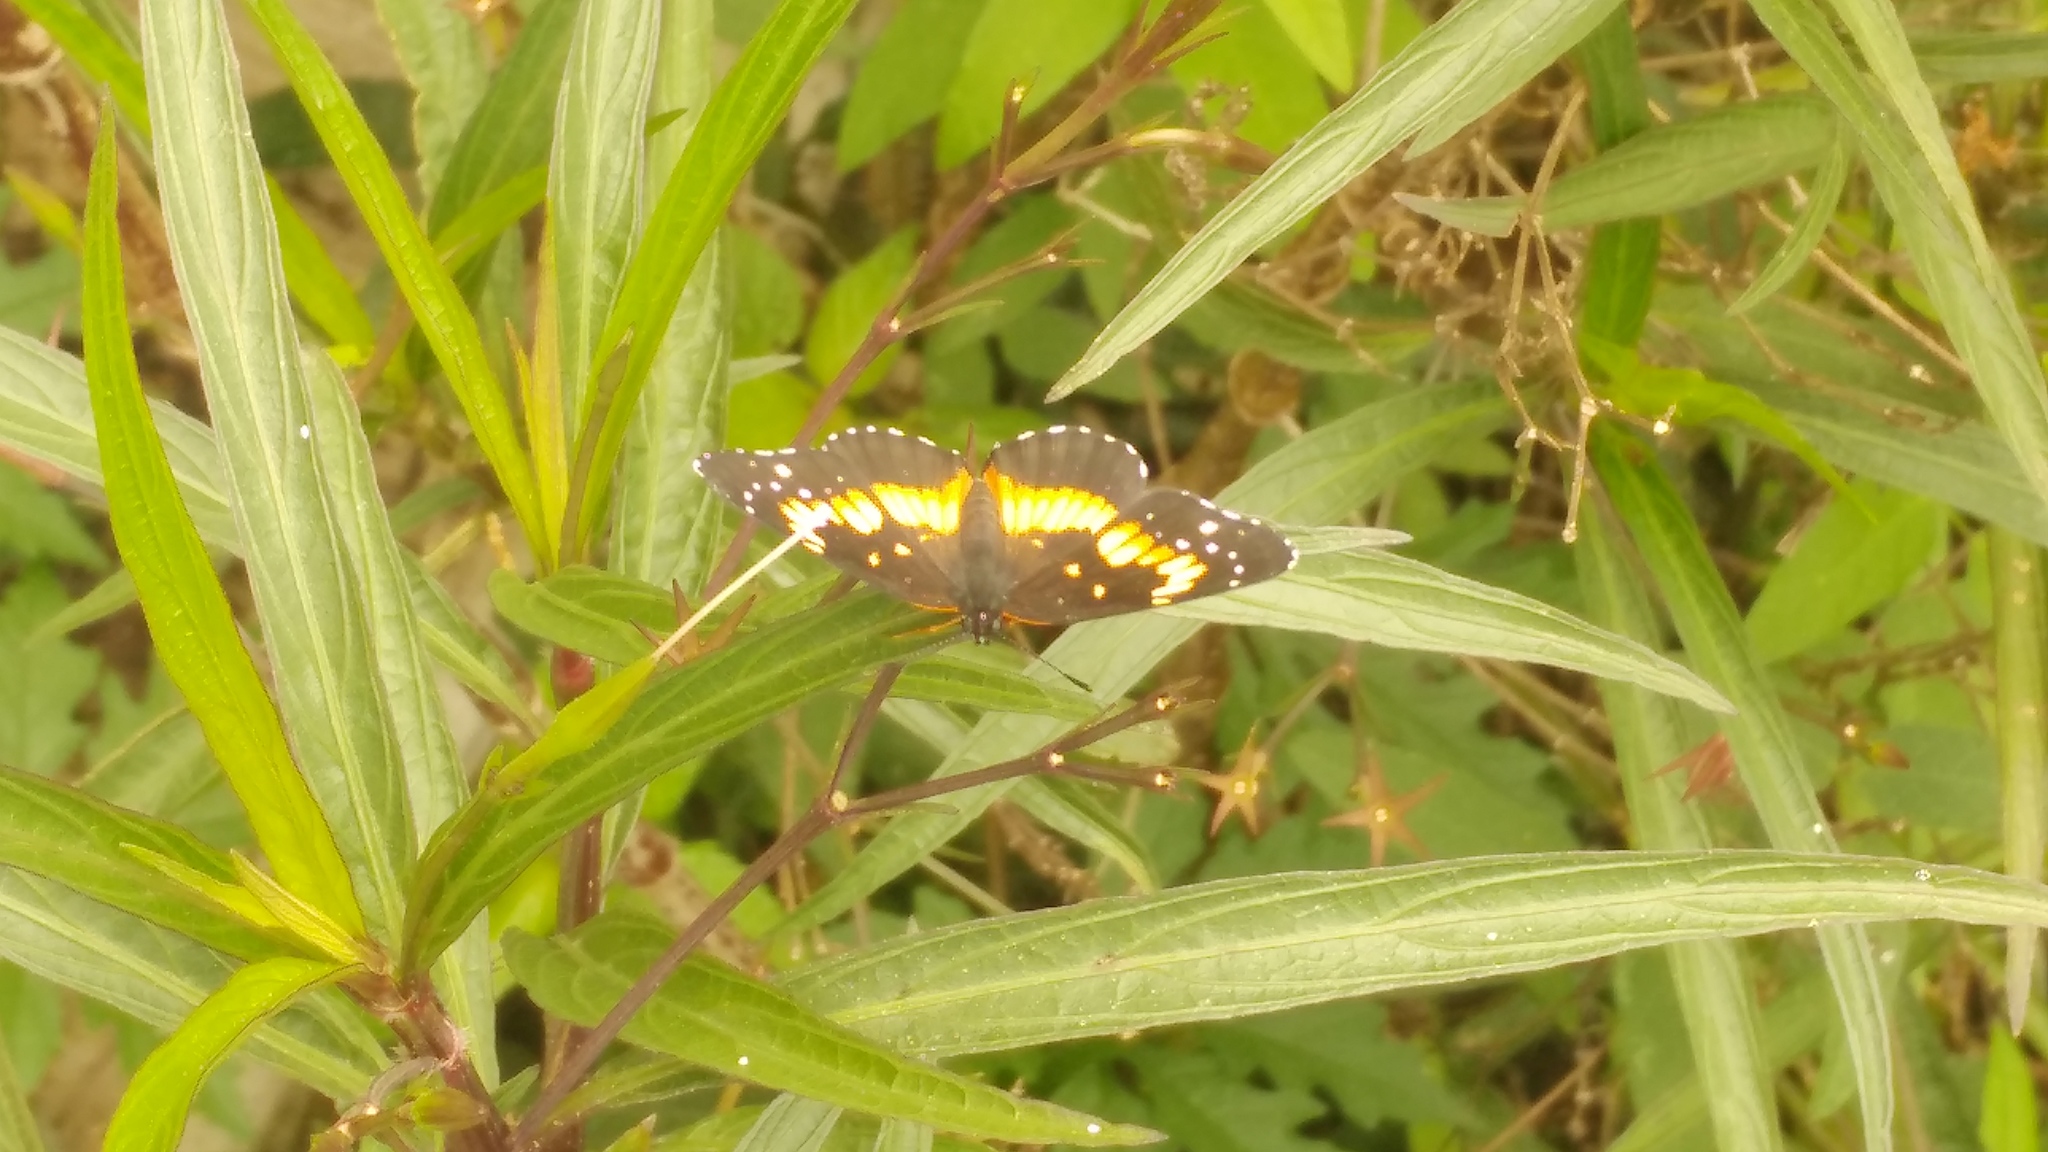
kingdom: Animalia
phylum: Arthropoda
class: Insecta
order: Lepidoptera
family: Nymphalidae
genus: Chlosyne
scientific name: Chlosyne lacinia
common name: Bordered patch
